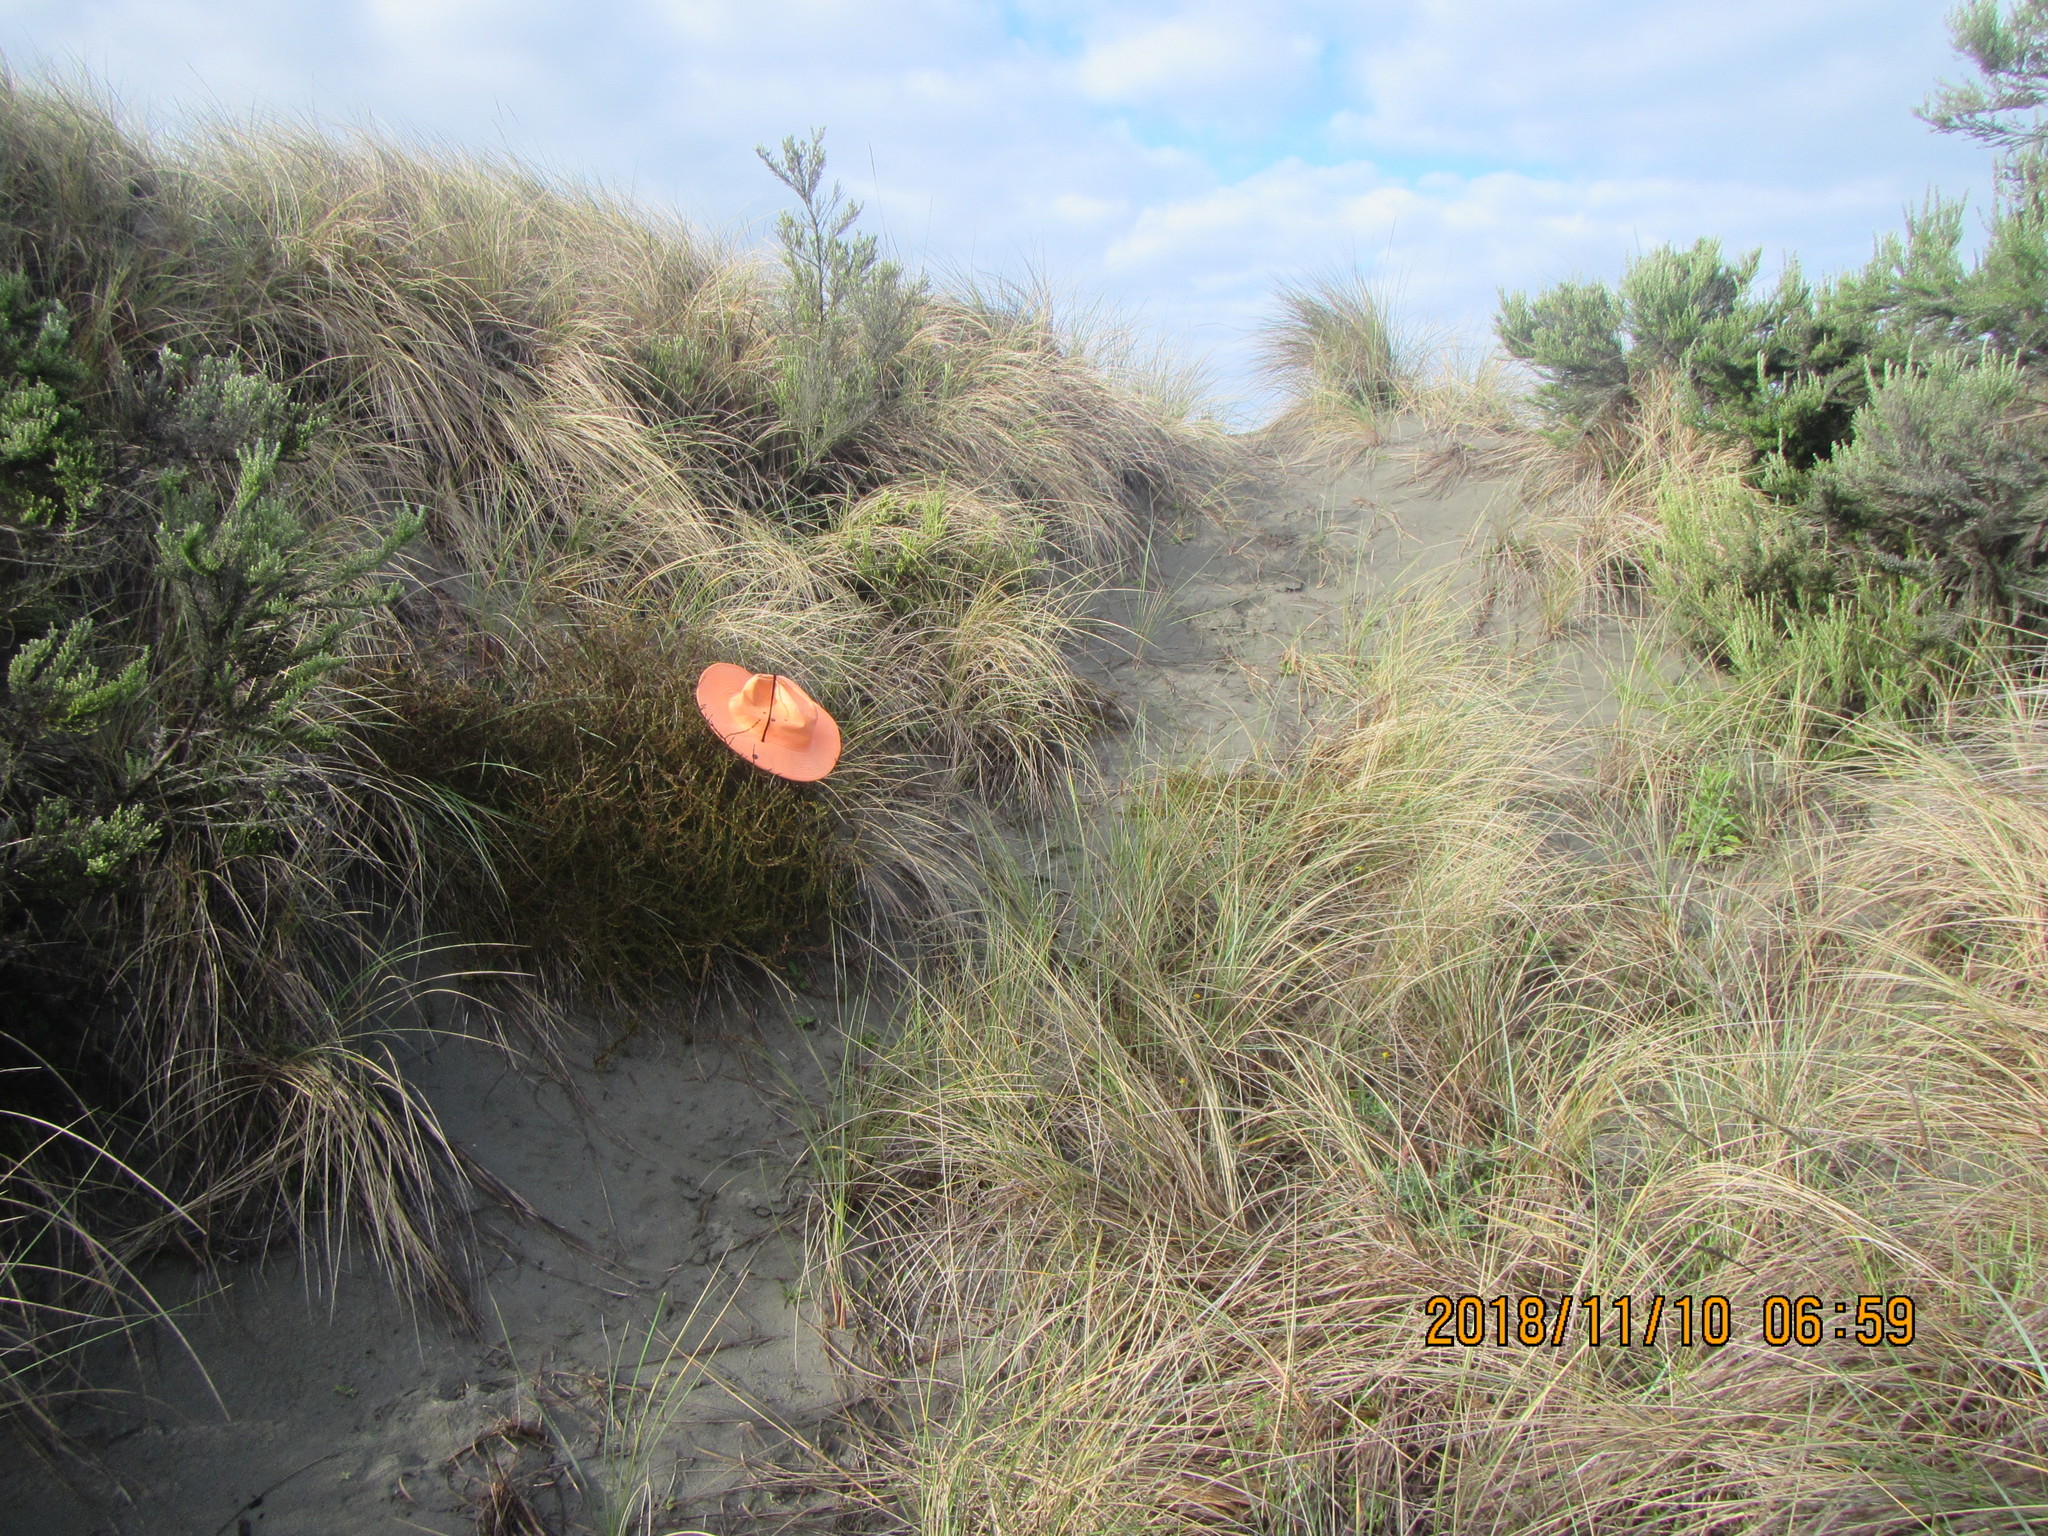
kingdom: Plantae
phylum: Tracheophyta
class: Magnoliopsida
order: Gentianales
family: Rubiaceae
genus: Coprosma
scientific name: Coprosma acerosa
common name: Sand coprosma
